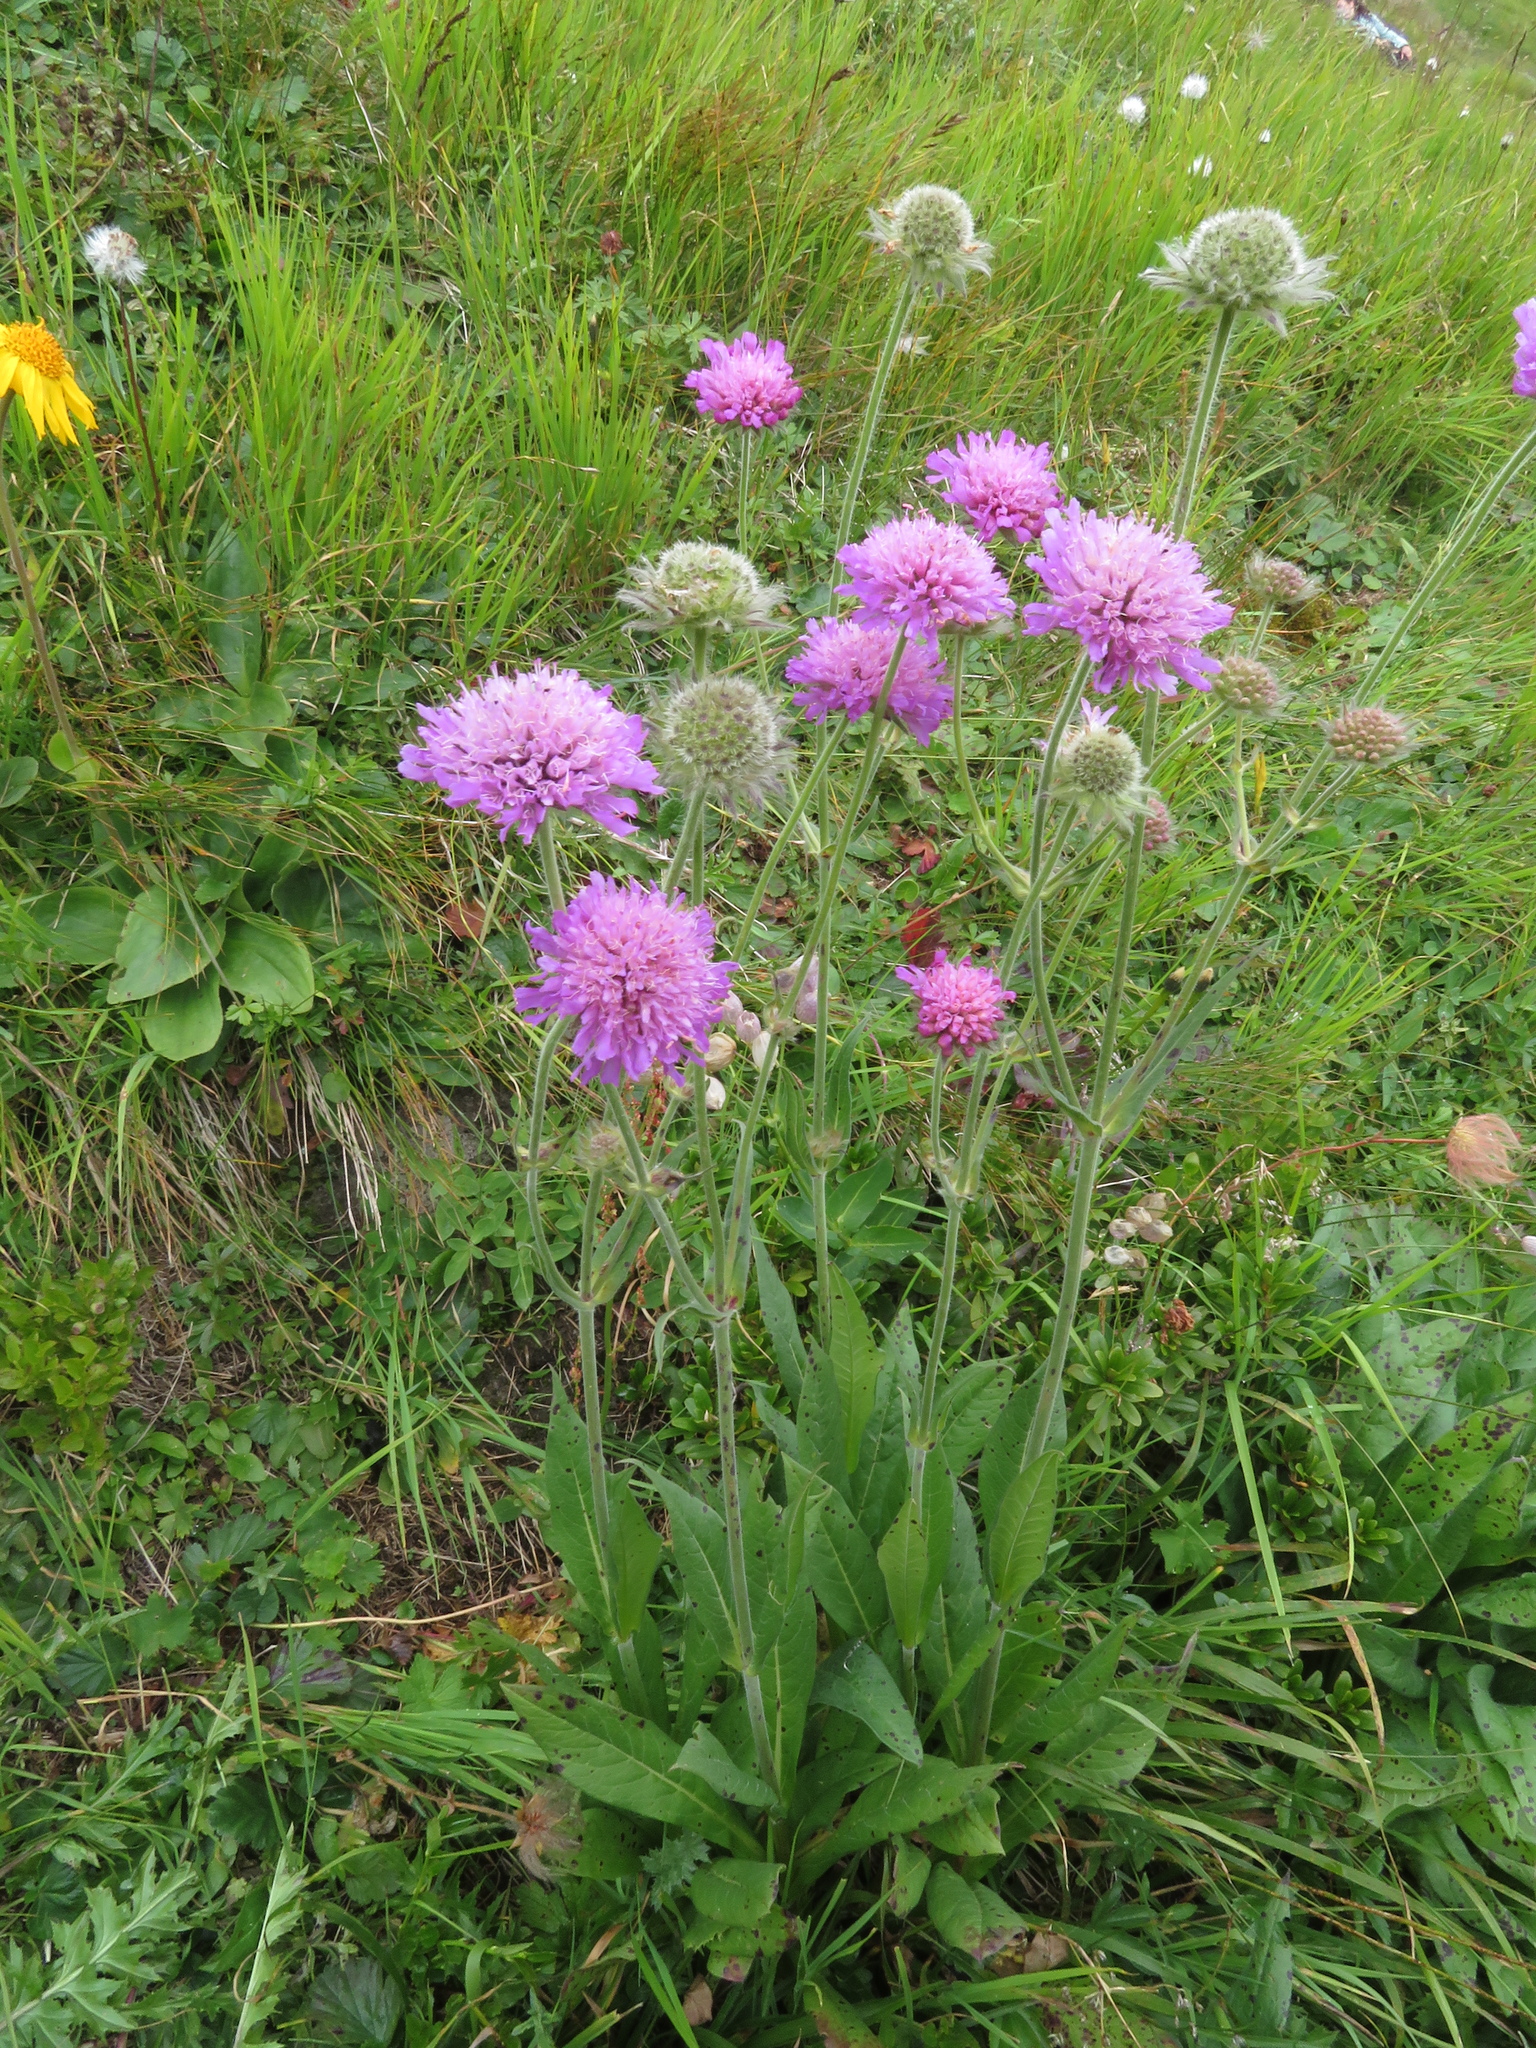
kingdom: Plantae
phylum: Tracheophyta
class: Magnoliopsida
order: Dipsacales
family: Caprifoliaceae
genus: Knautia
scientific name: Knautia longifolia
